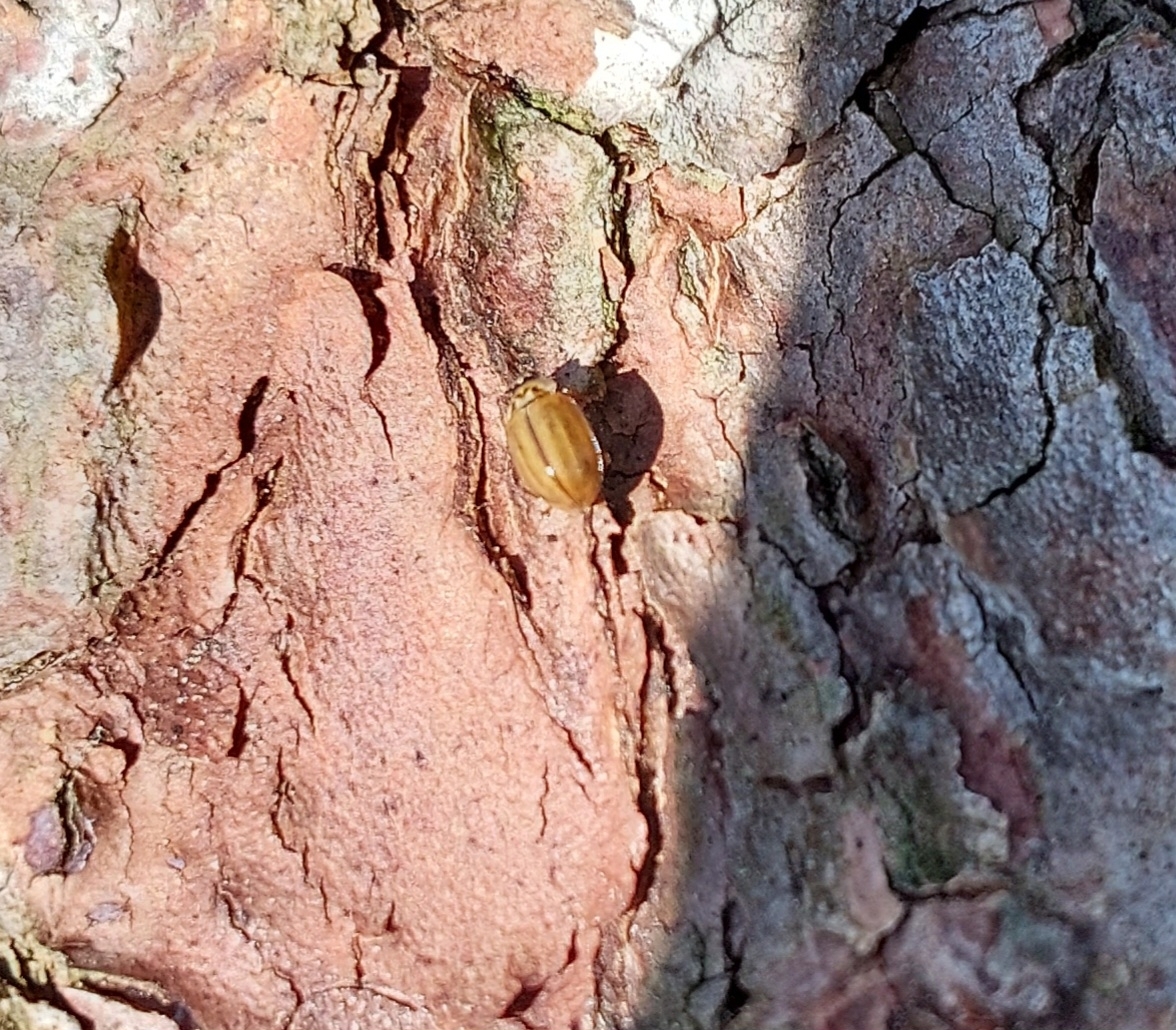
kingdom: Animalia
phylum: Arthropoda
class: Insecta
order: Coleoptera
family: Coccinellidae
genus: Aphidecta
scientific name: Aphidecta obliterata
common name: Larch ladybird
